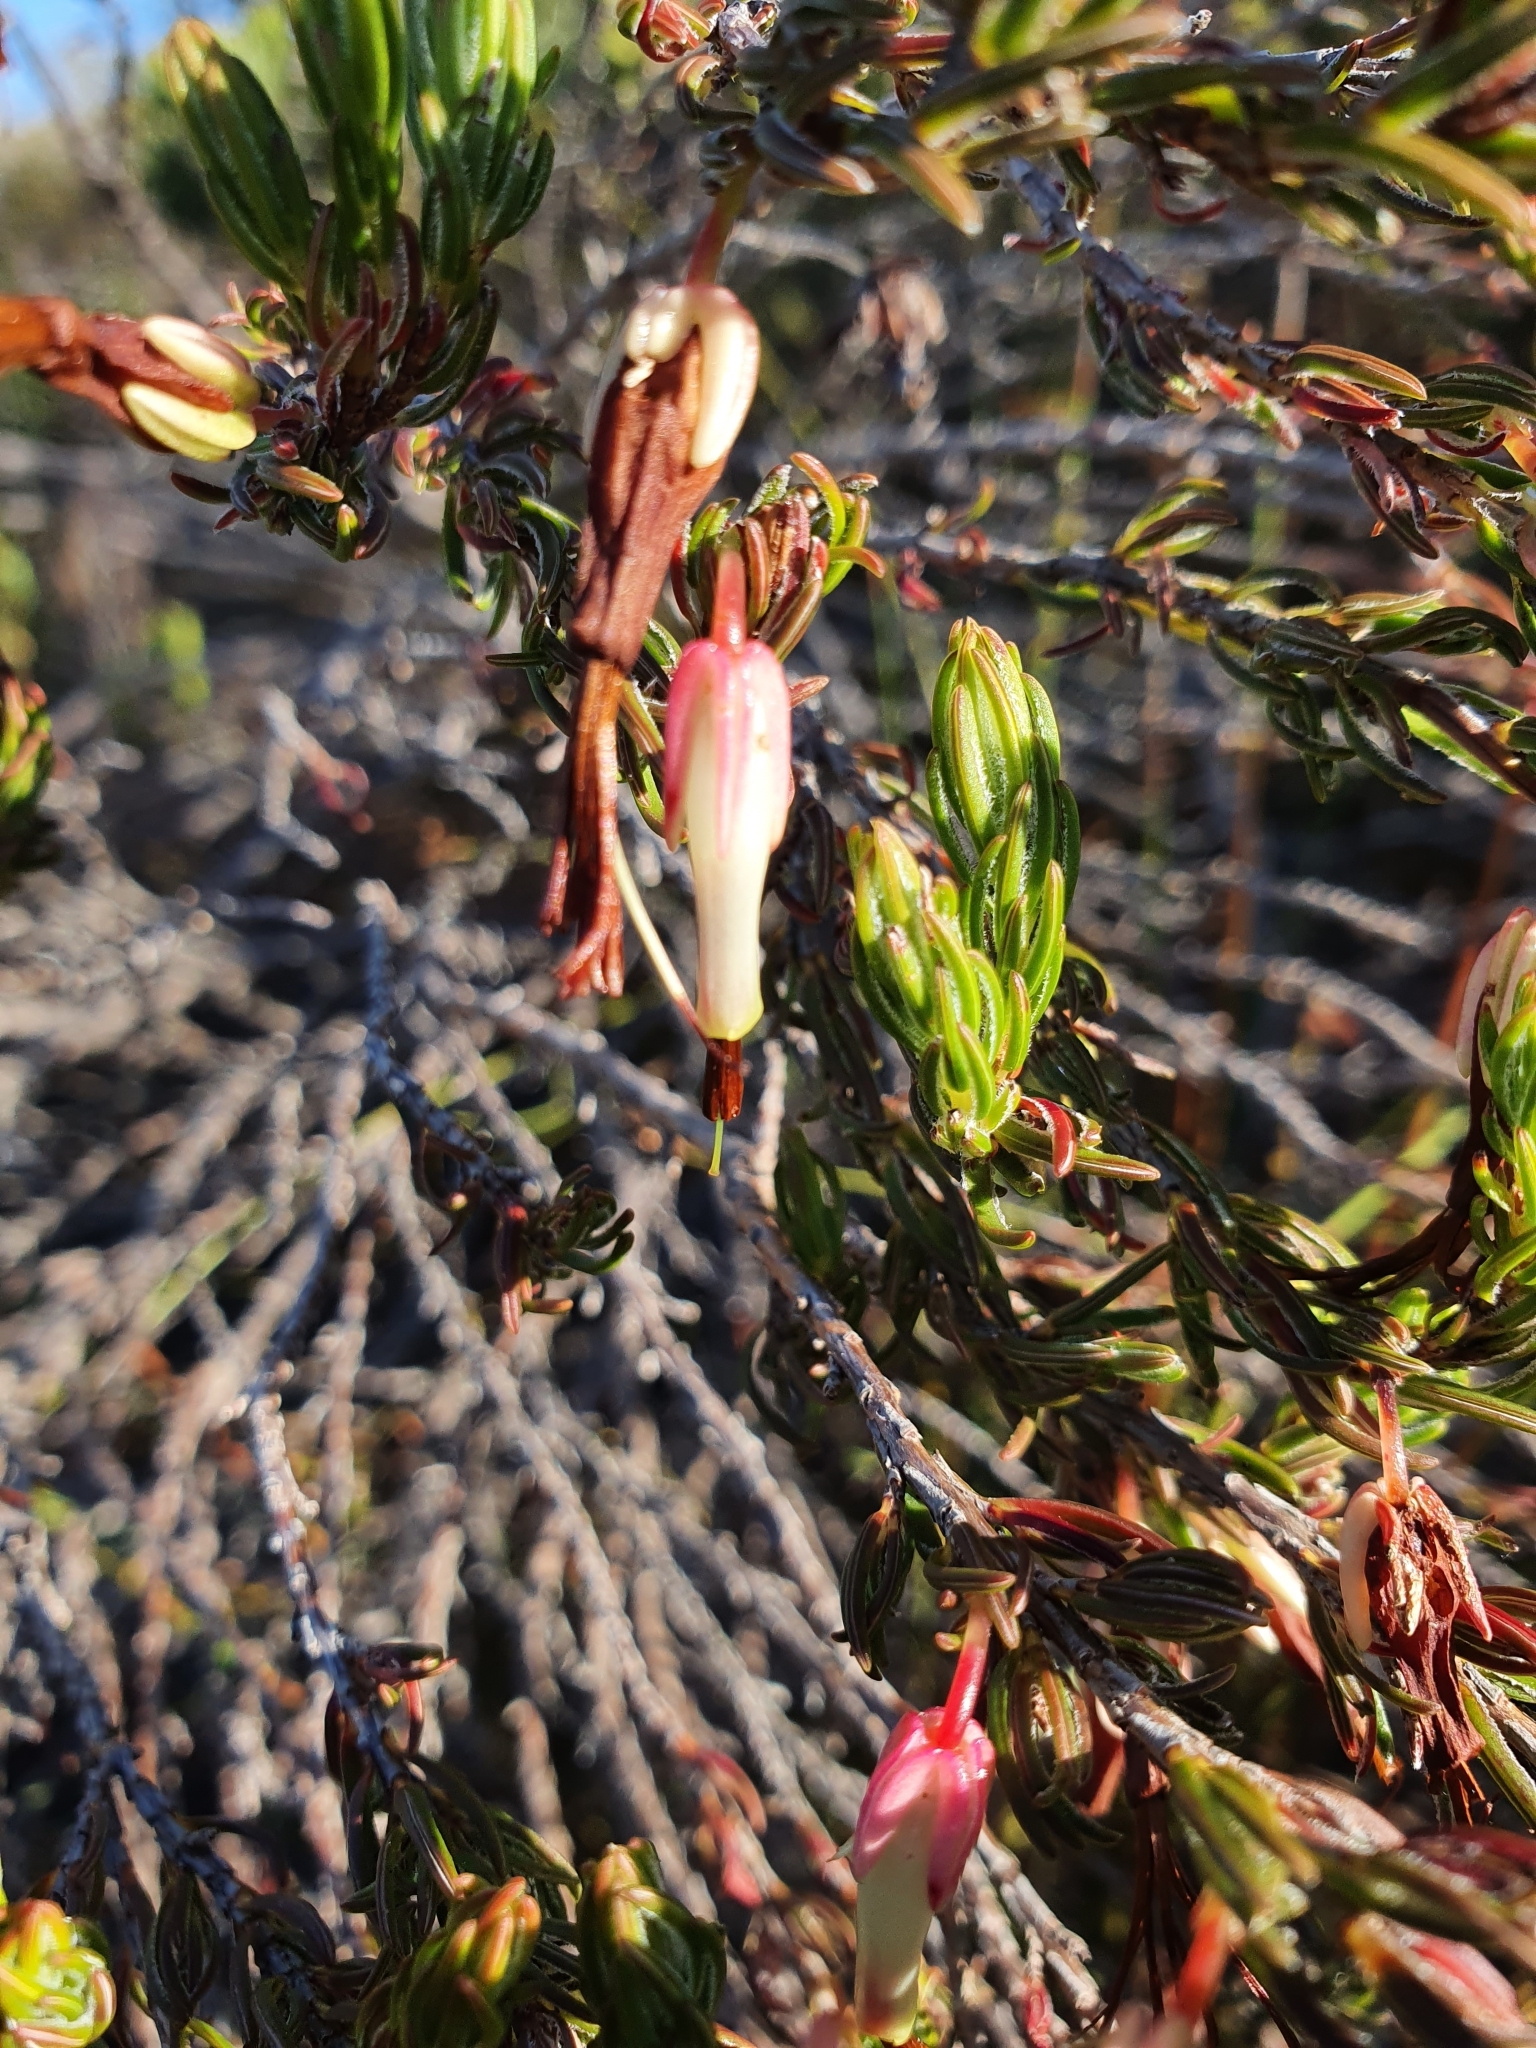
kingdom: Plantae
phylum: Tracheophyta
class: Magnoliopsida
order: Ericales
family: Ericaceae
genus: Erica
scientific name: Erica plukenetii
